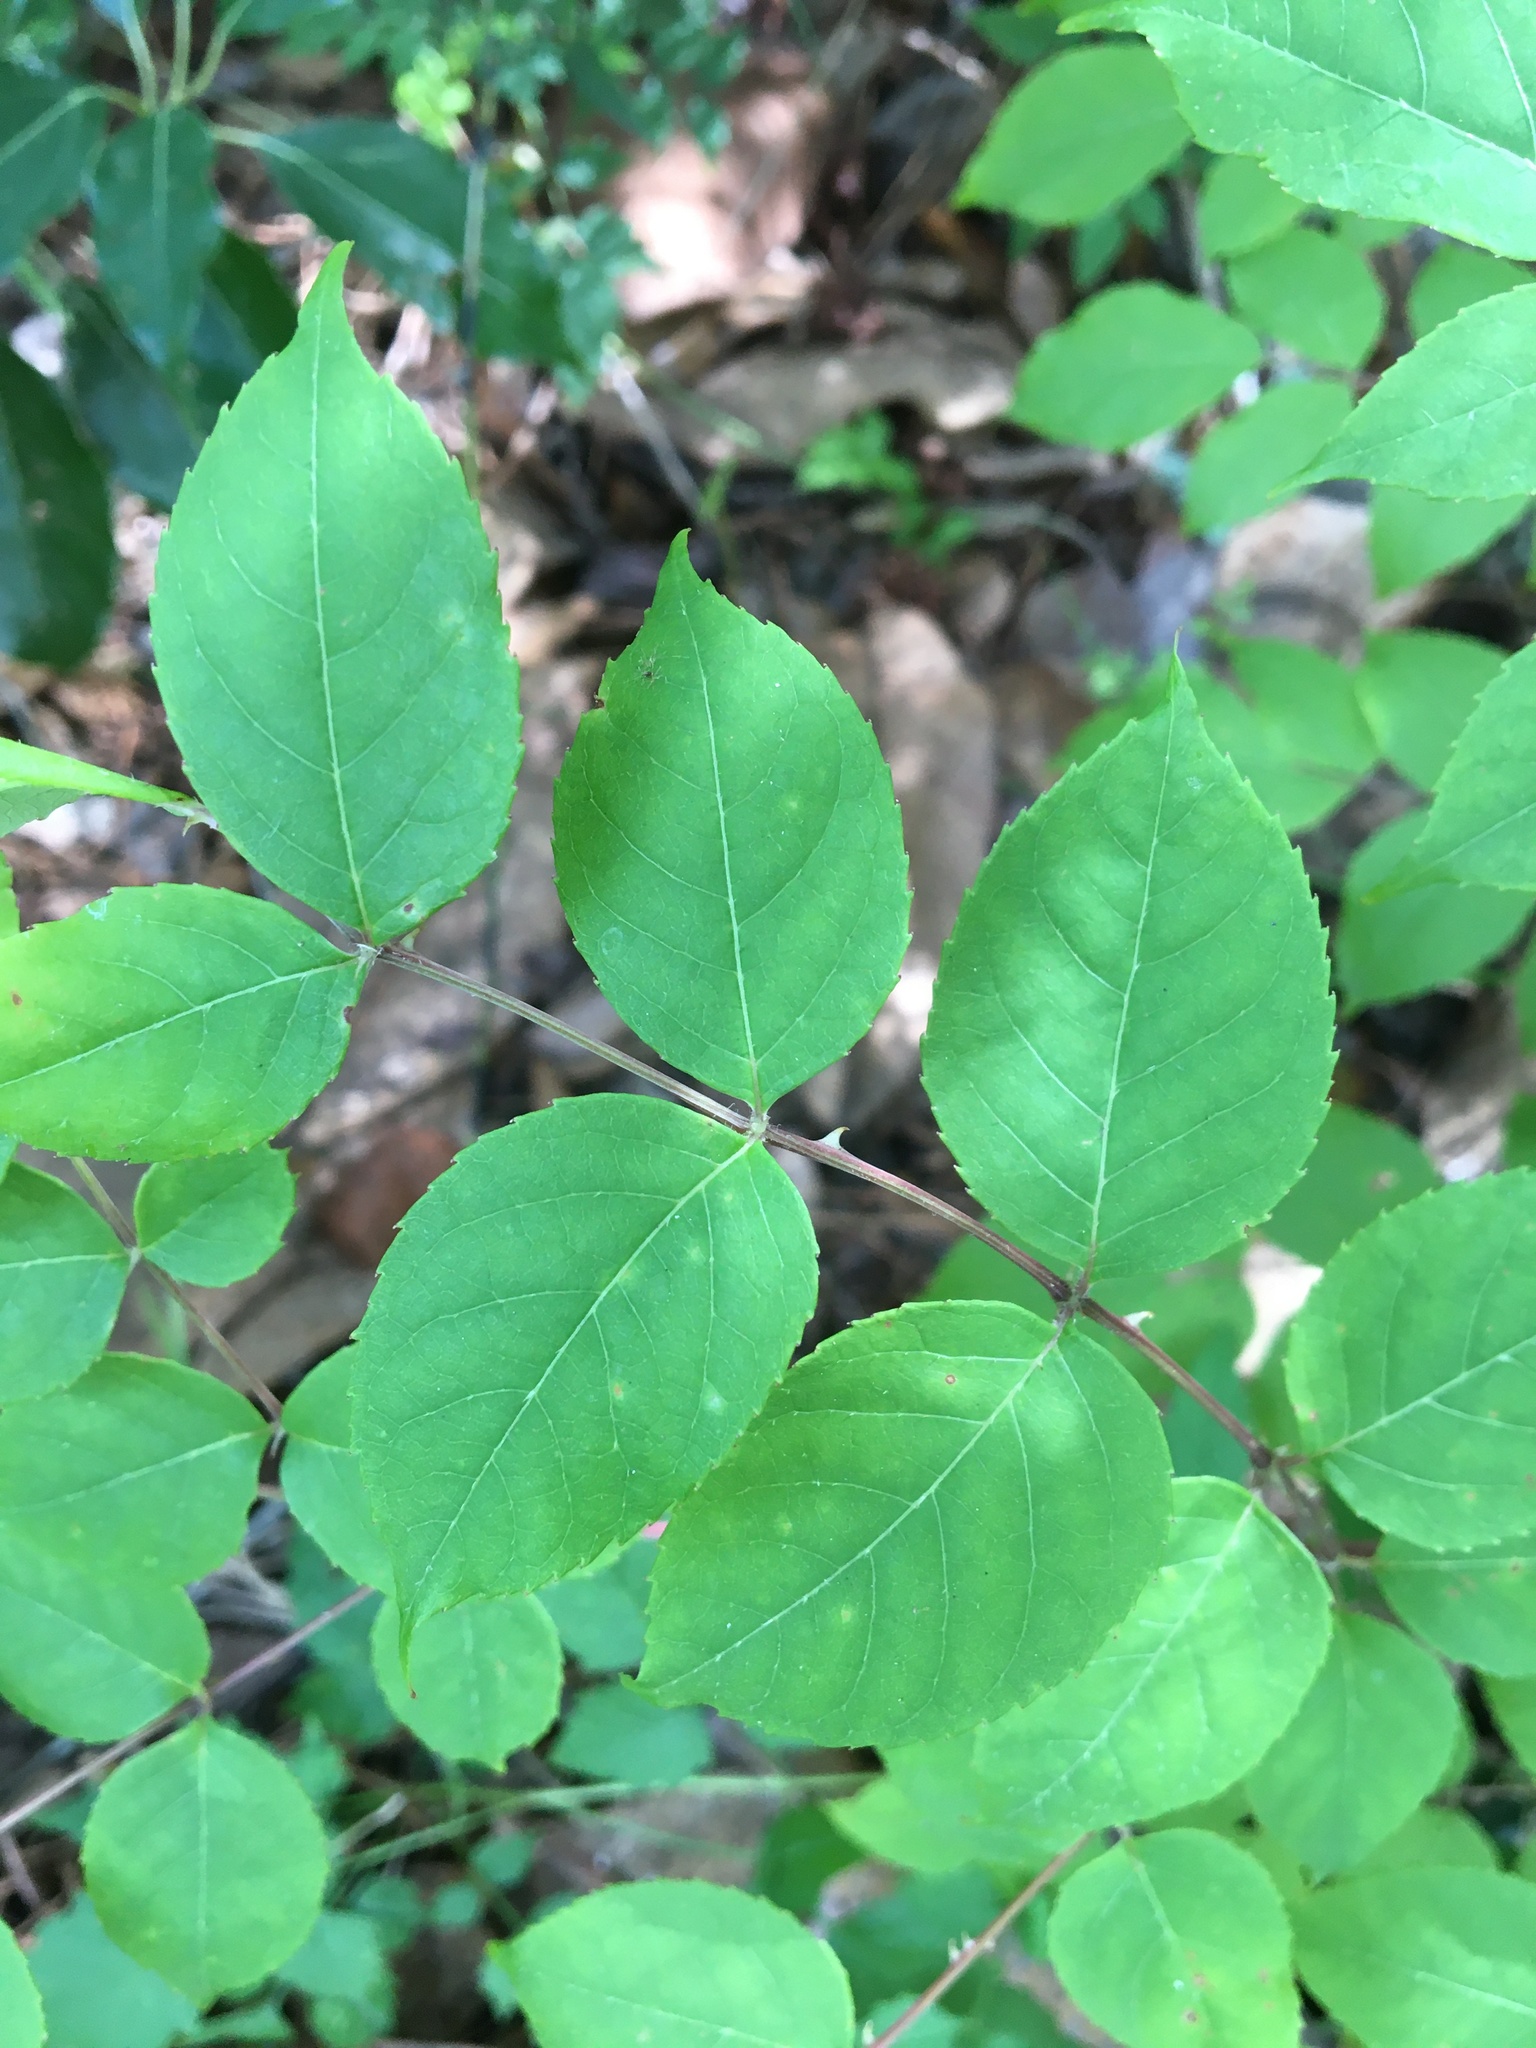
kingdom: Plantae
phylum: Tracheophyta
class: Magnoliopsida
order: Apiales
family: Araliaceae
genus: Aralia
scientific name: Aralia spinosa
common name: Hercules'-club
